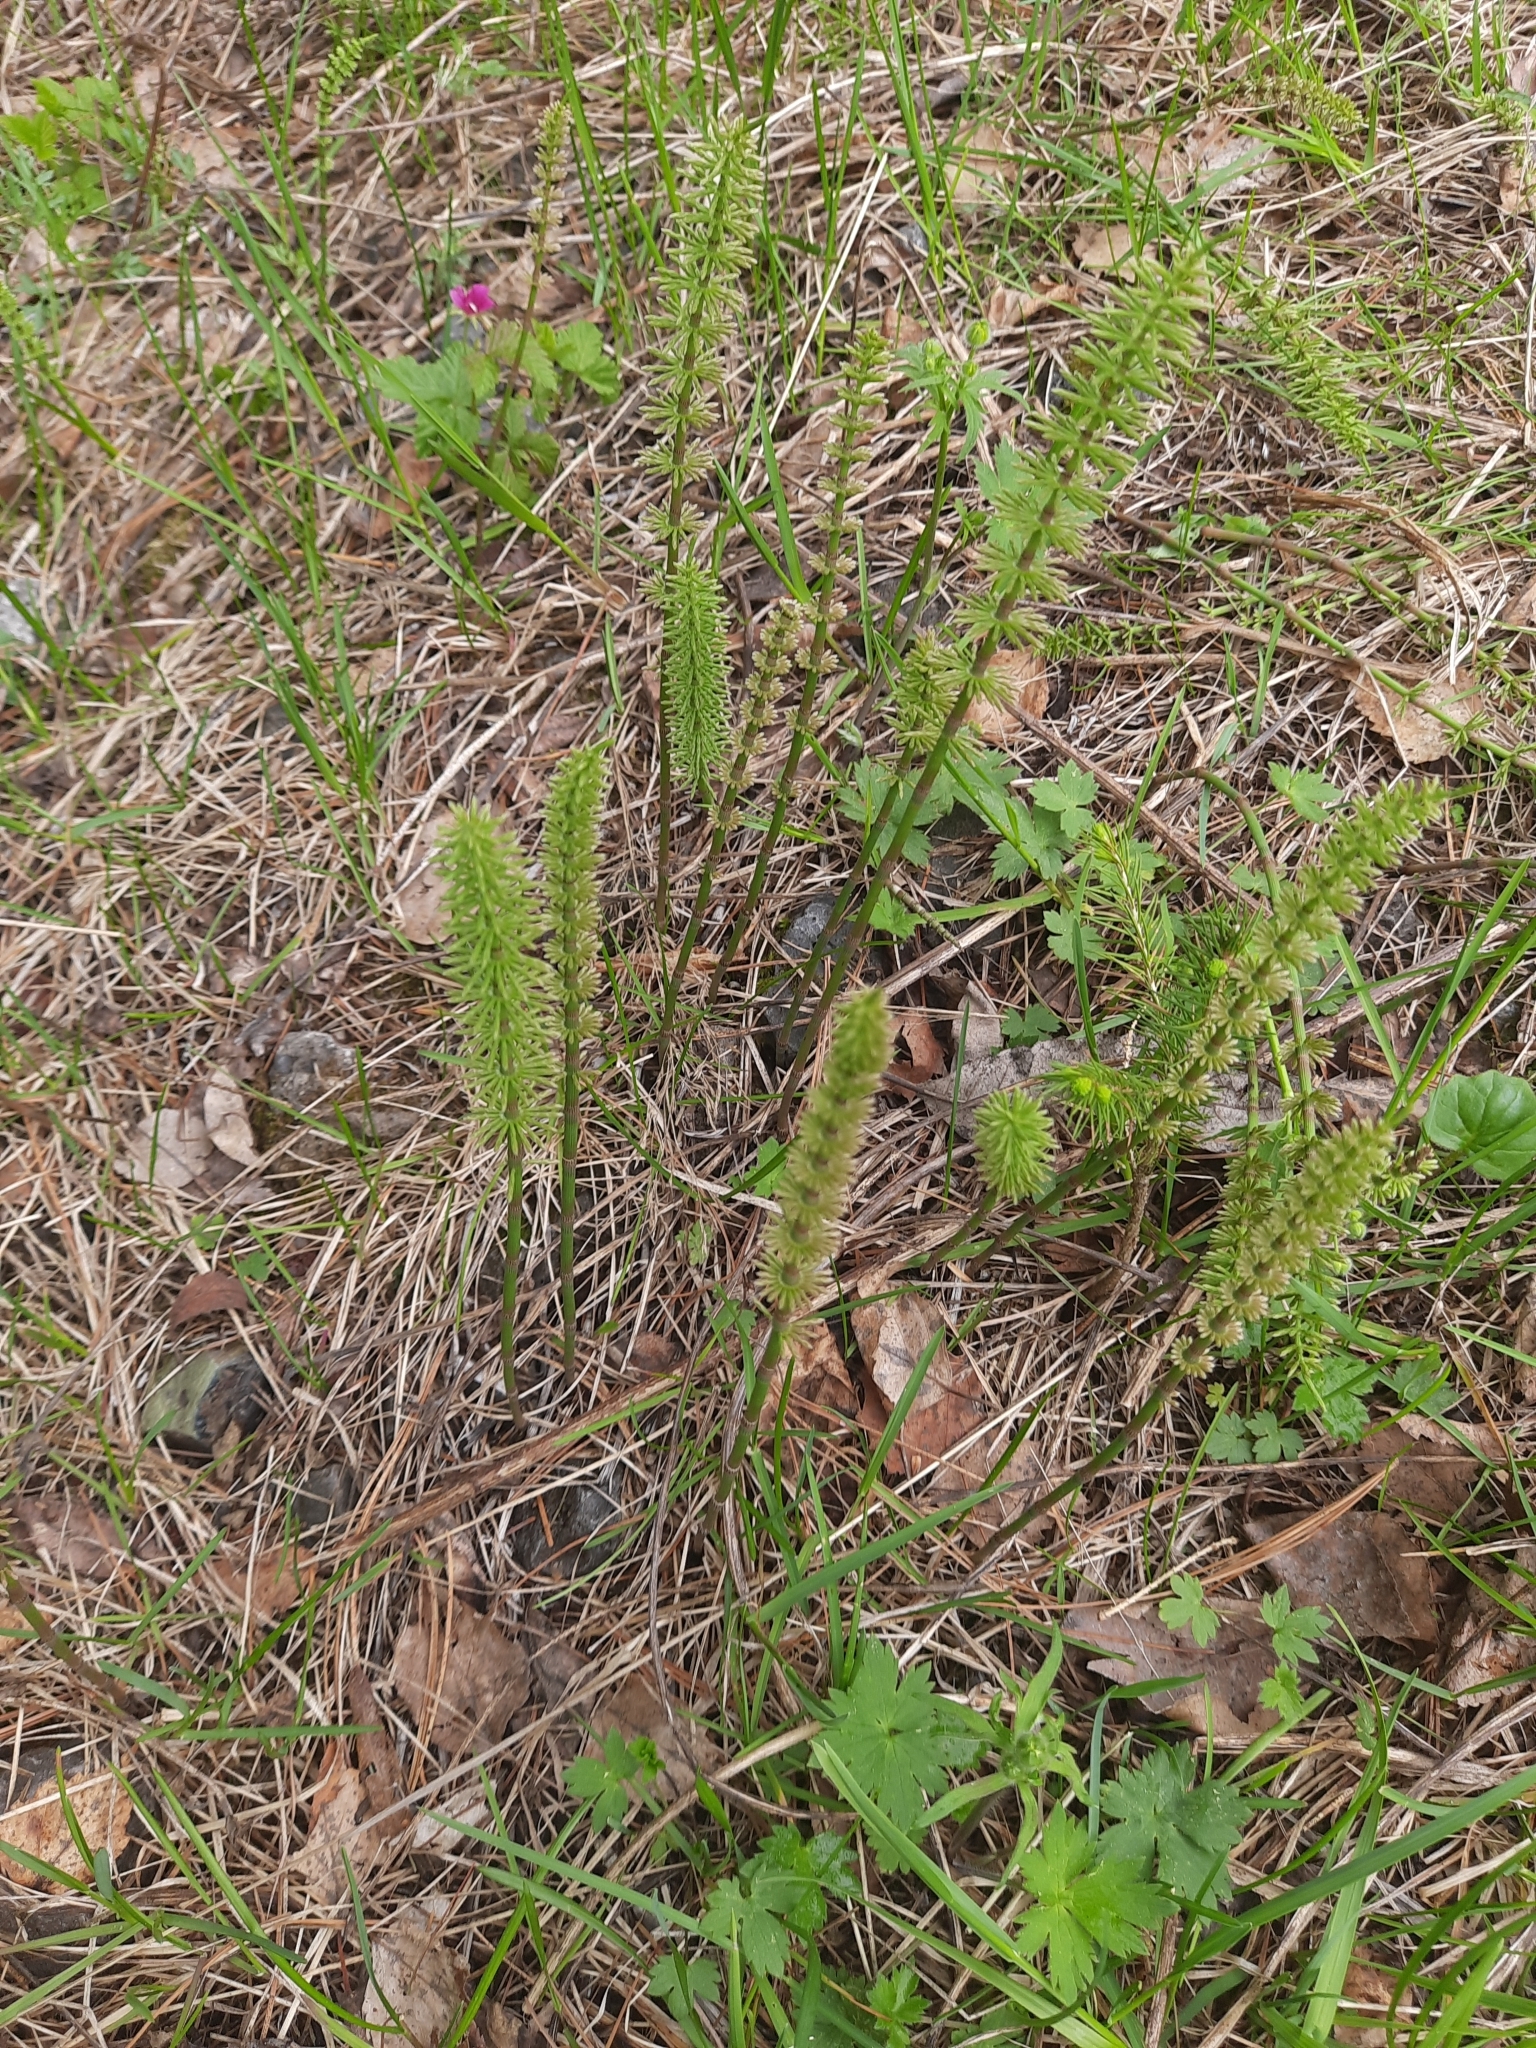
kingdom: Plantae
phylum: Tracheophyta
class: Polypodiopsida
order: Equisetales
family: Equisetaceae
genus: Equisetum
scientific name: Equisetum pratense
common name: Meadow horsetail
